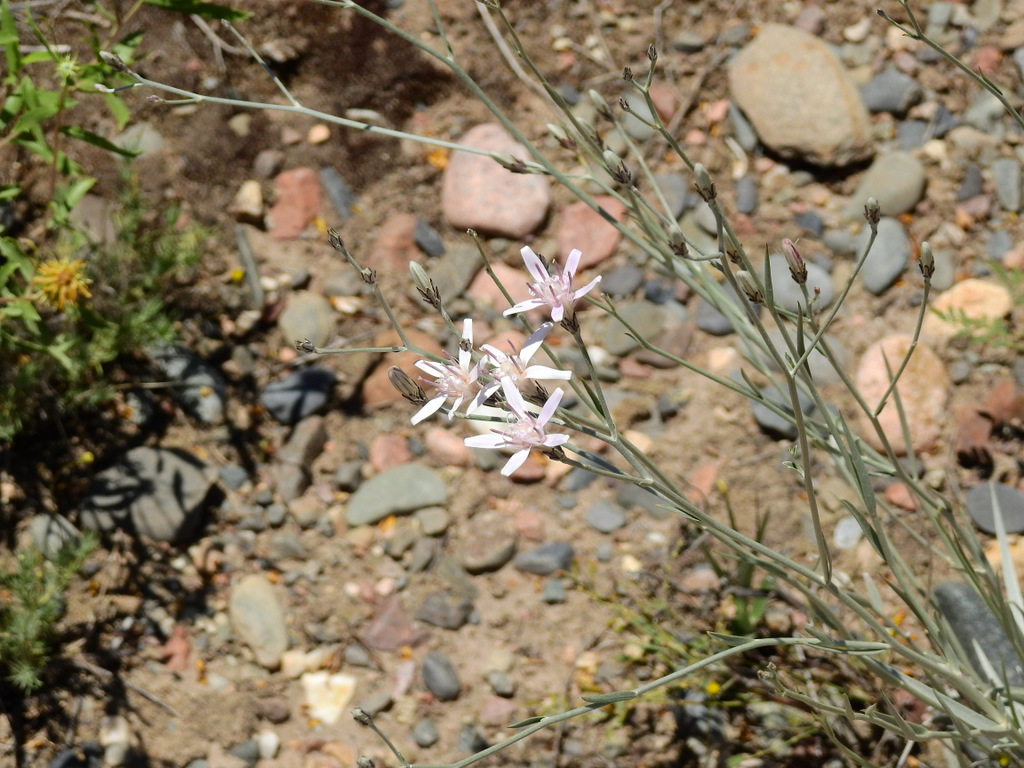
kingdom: Plantae
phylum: Tracheophyta
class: Magnoliopsida
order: Asterales
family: Asteraceae
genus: Hyalis
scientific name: Hyalis argentea
